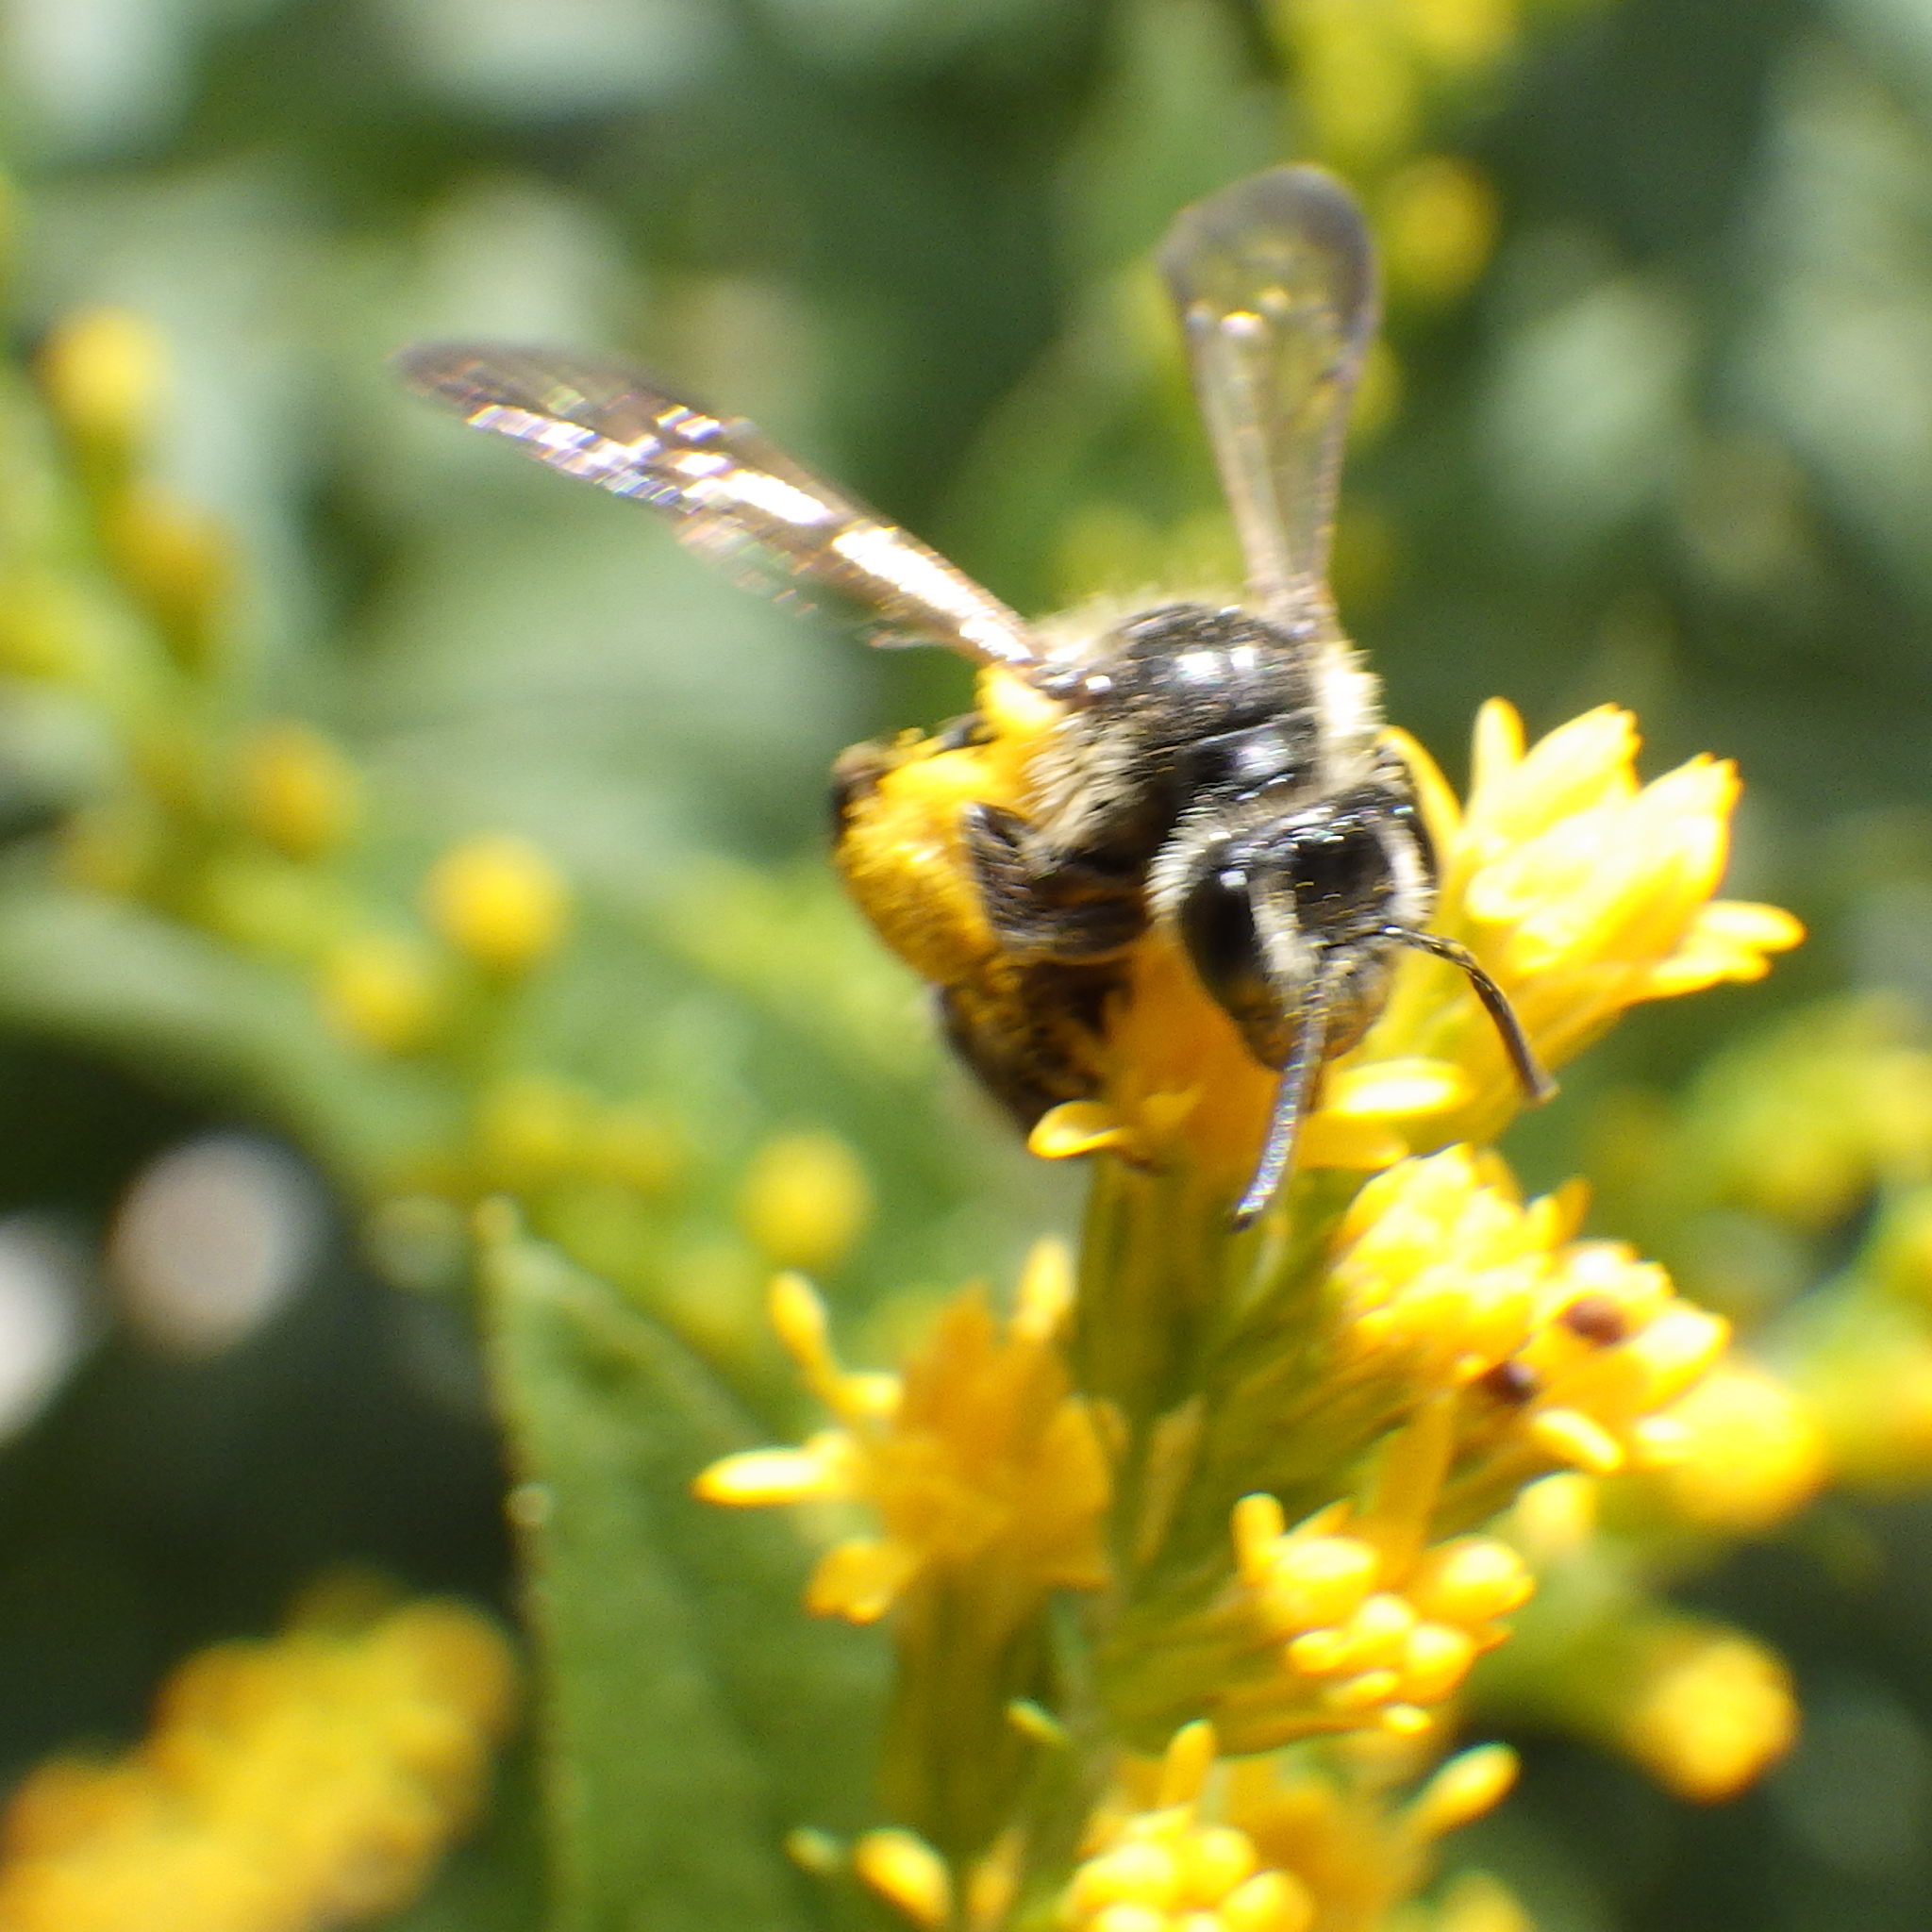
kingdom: Animalia
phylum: Arthropoda
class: Insecta
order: Hymenoptera
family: Andrenidae
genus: Andrena
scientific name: Andrena nubecula
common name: Cloudy-winged mining bee
